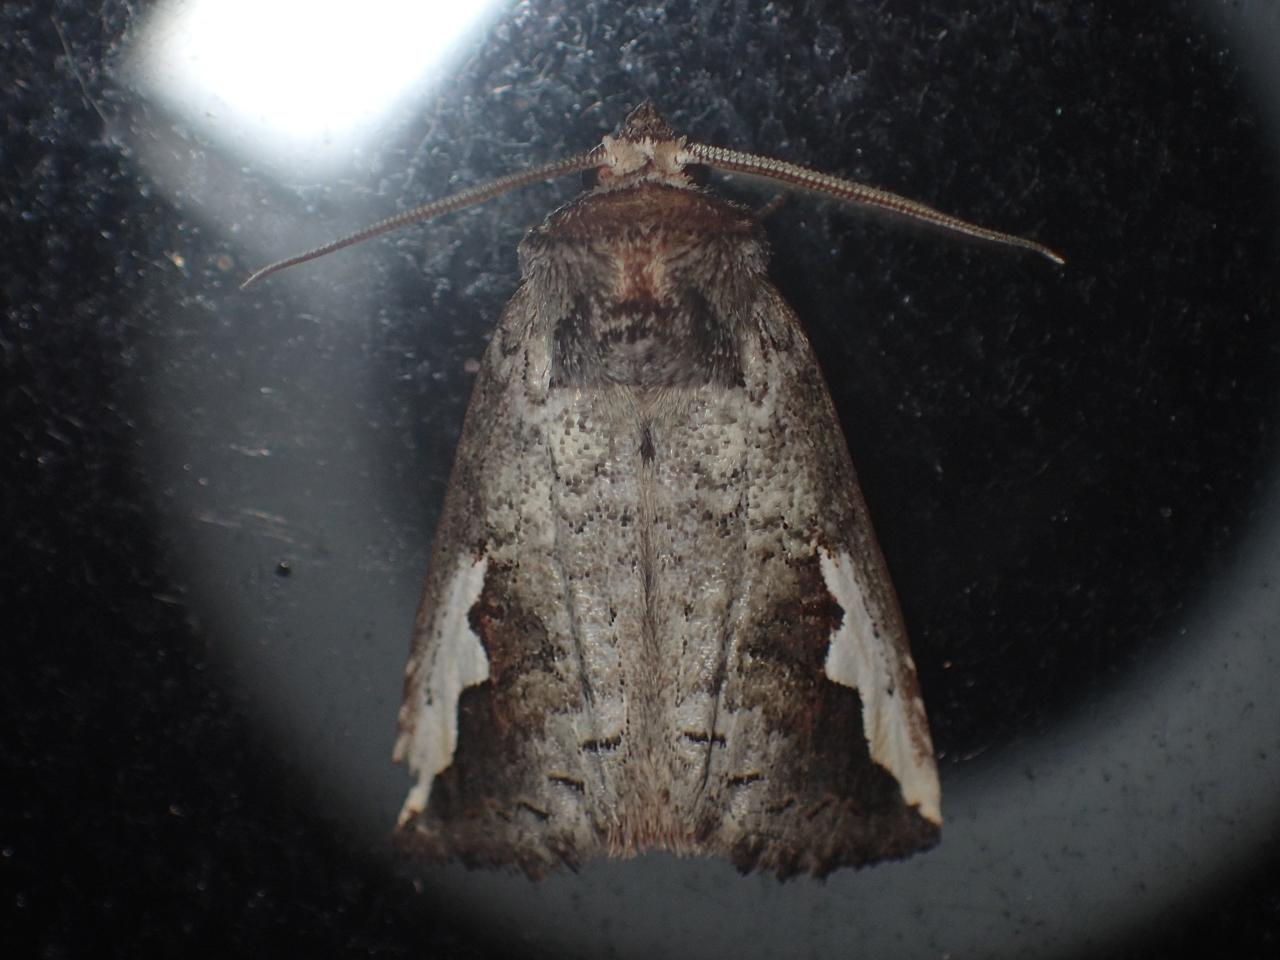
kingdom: Animalia
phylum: Arthropoda
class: Insecta
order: Lepidoptera
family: Notodontidae
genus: Symmerista
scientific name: Symmerista
